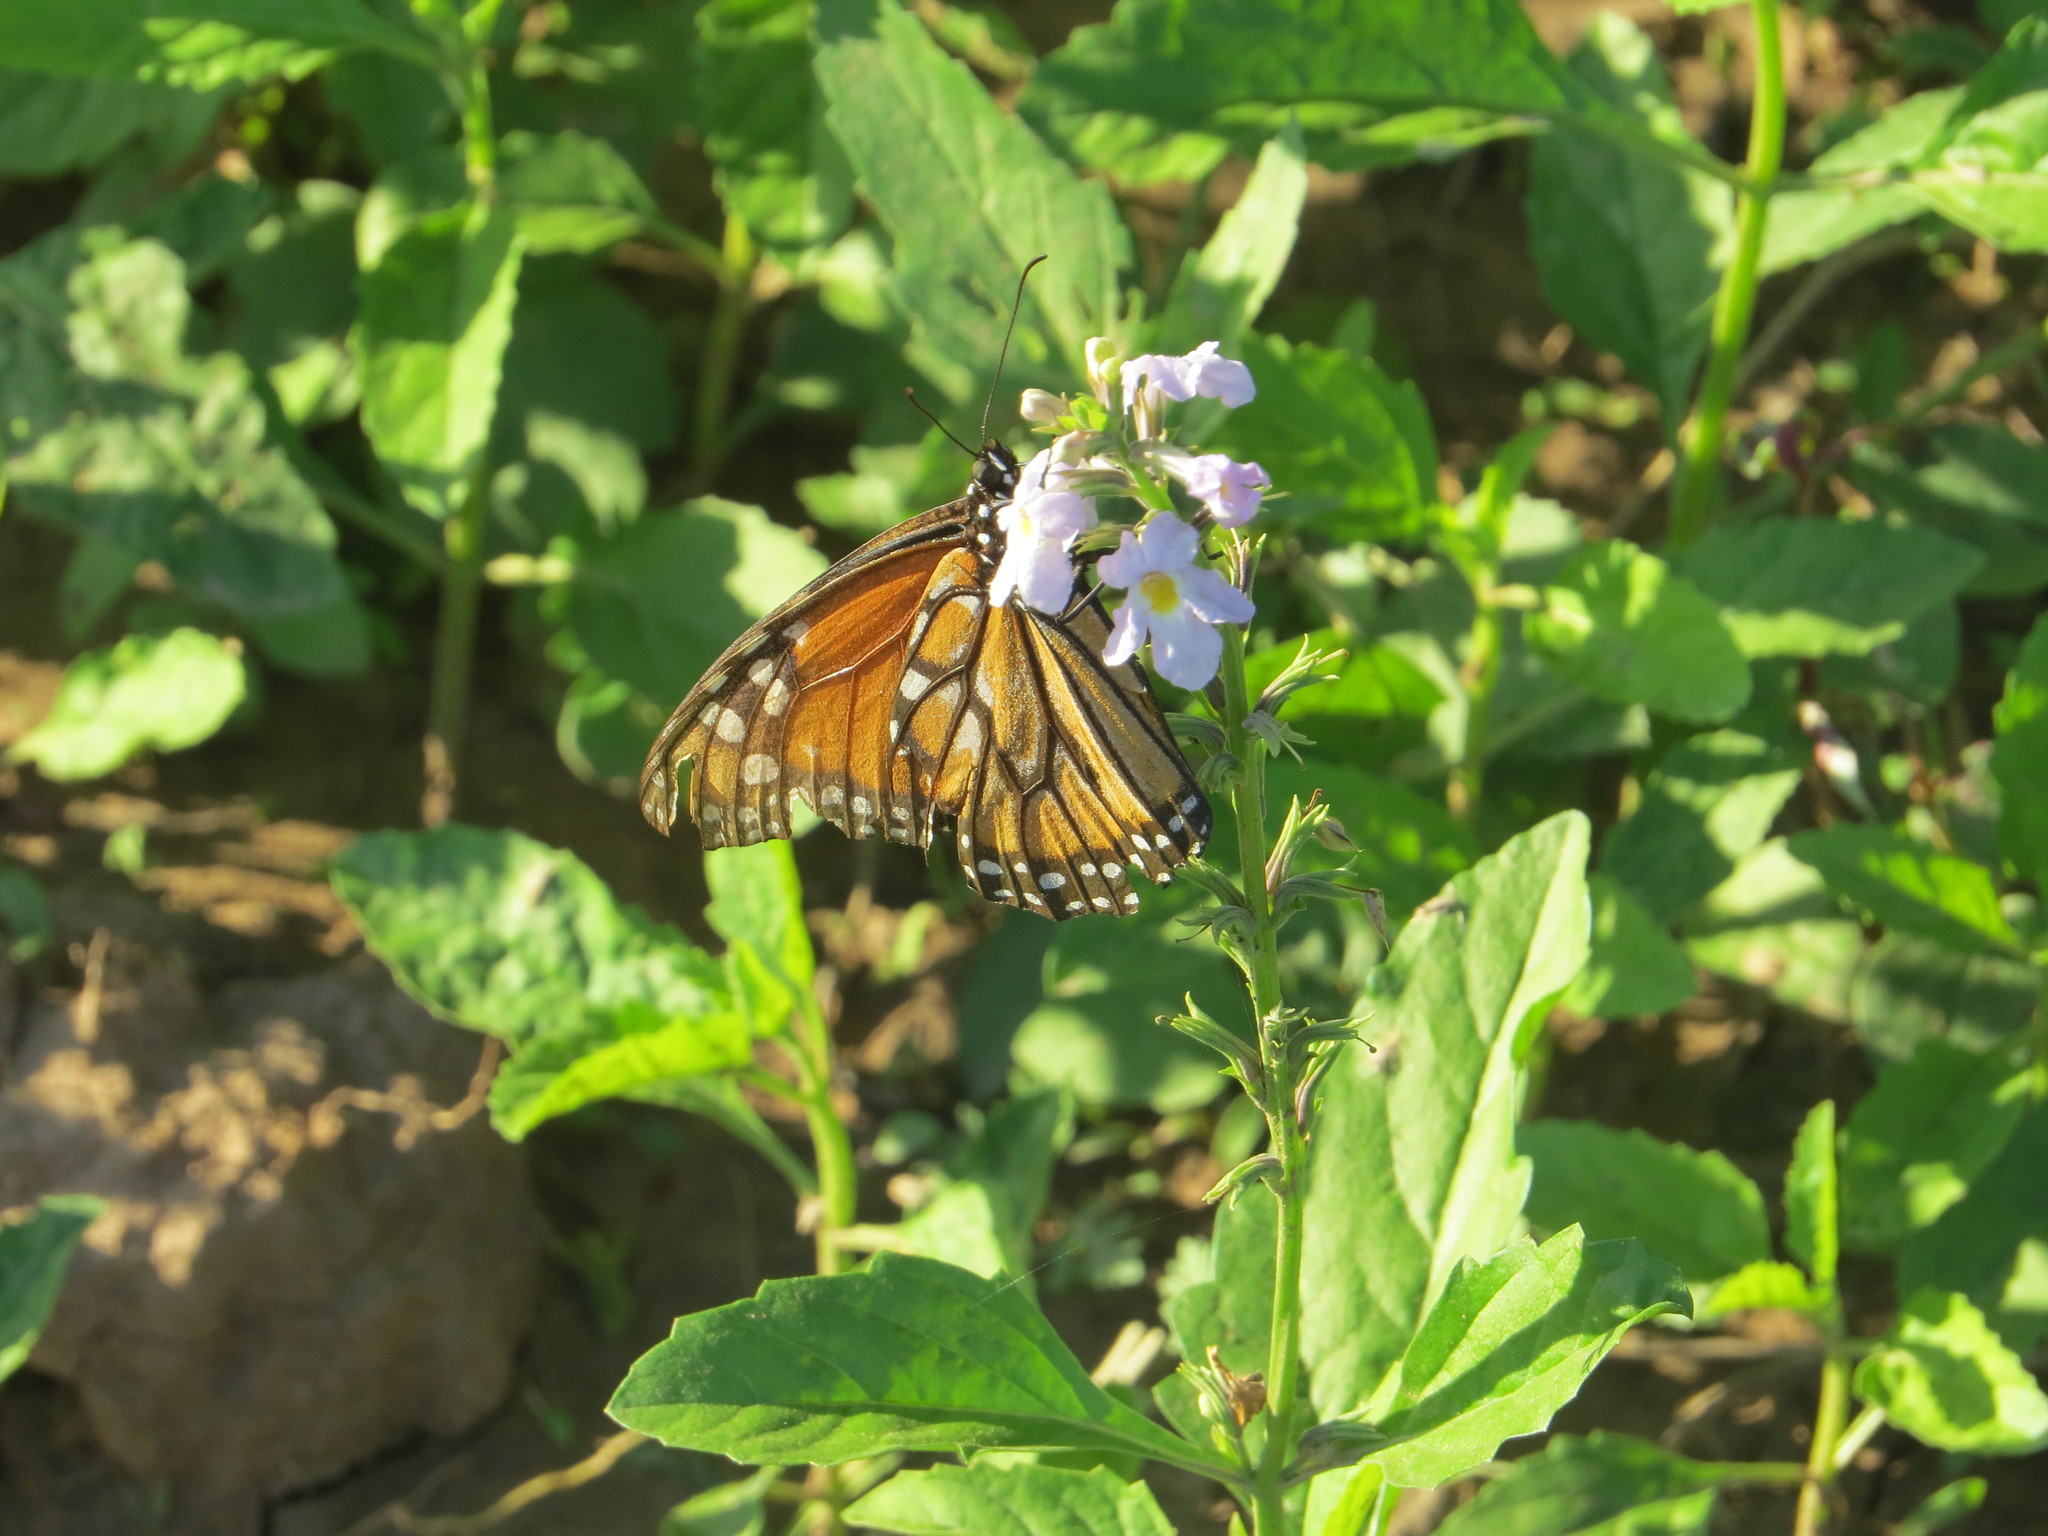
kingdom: Animalia
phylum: Arthropoda
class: Insecta
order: Lepidoptera
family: Nymphalidae
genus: Danaus
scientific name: Danaus erippus
